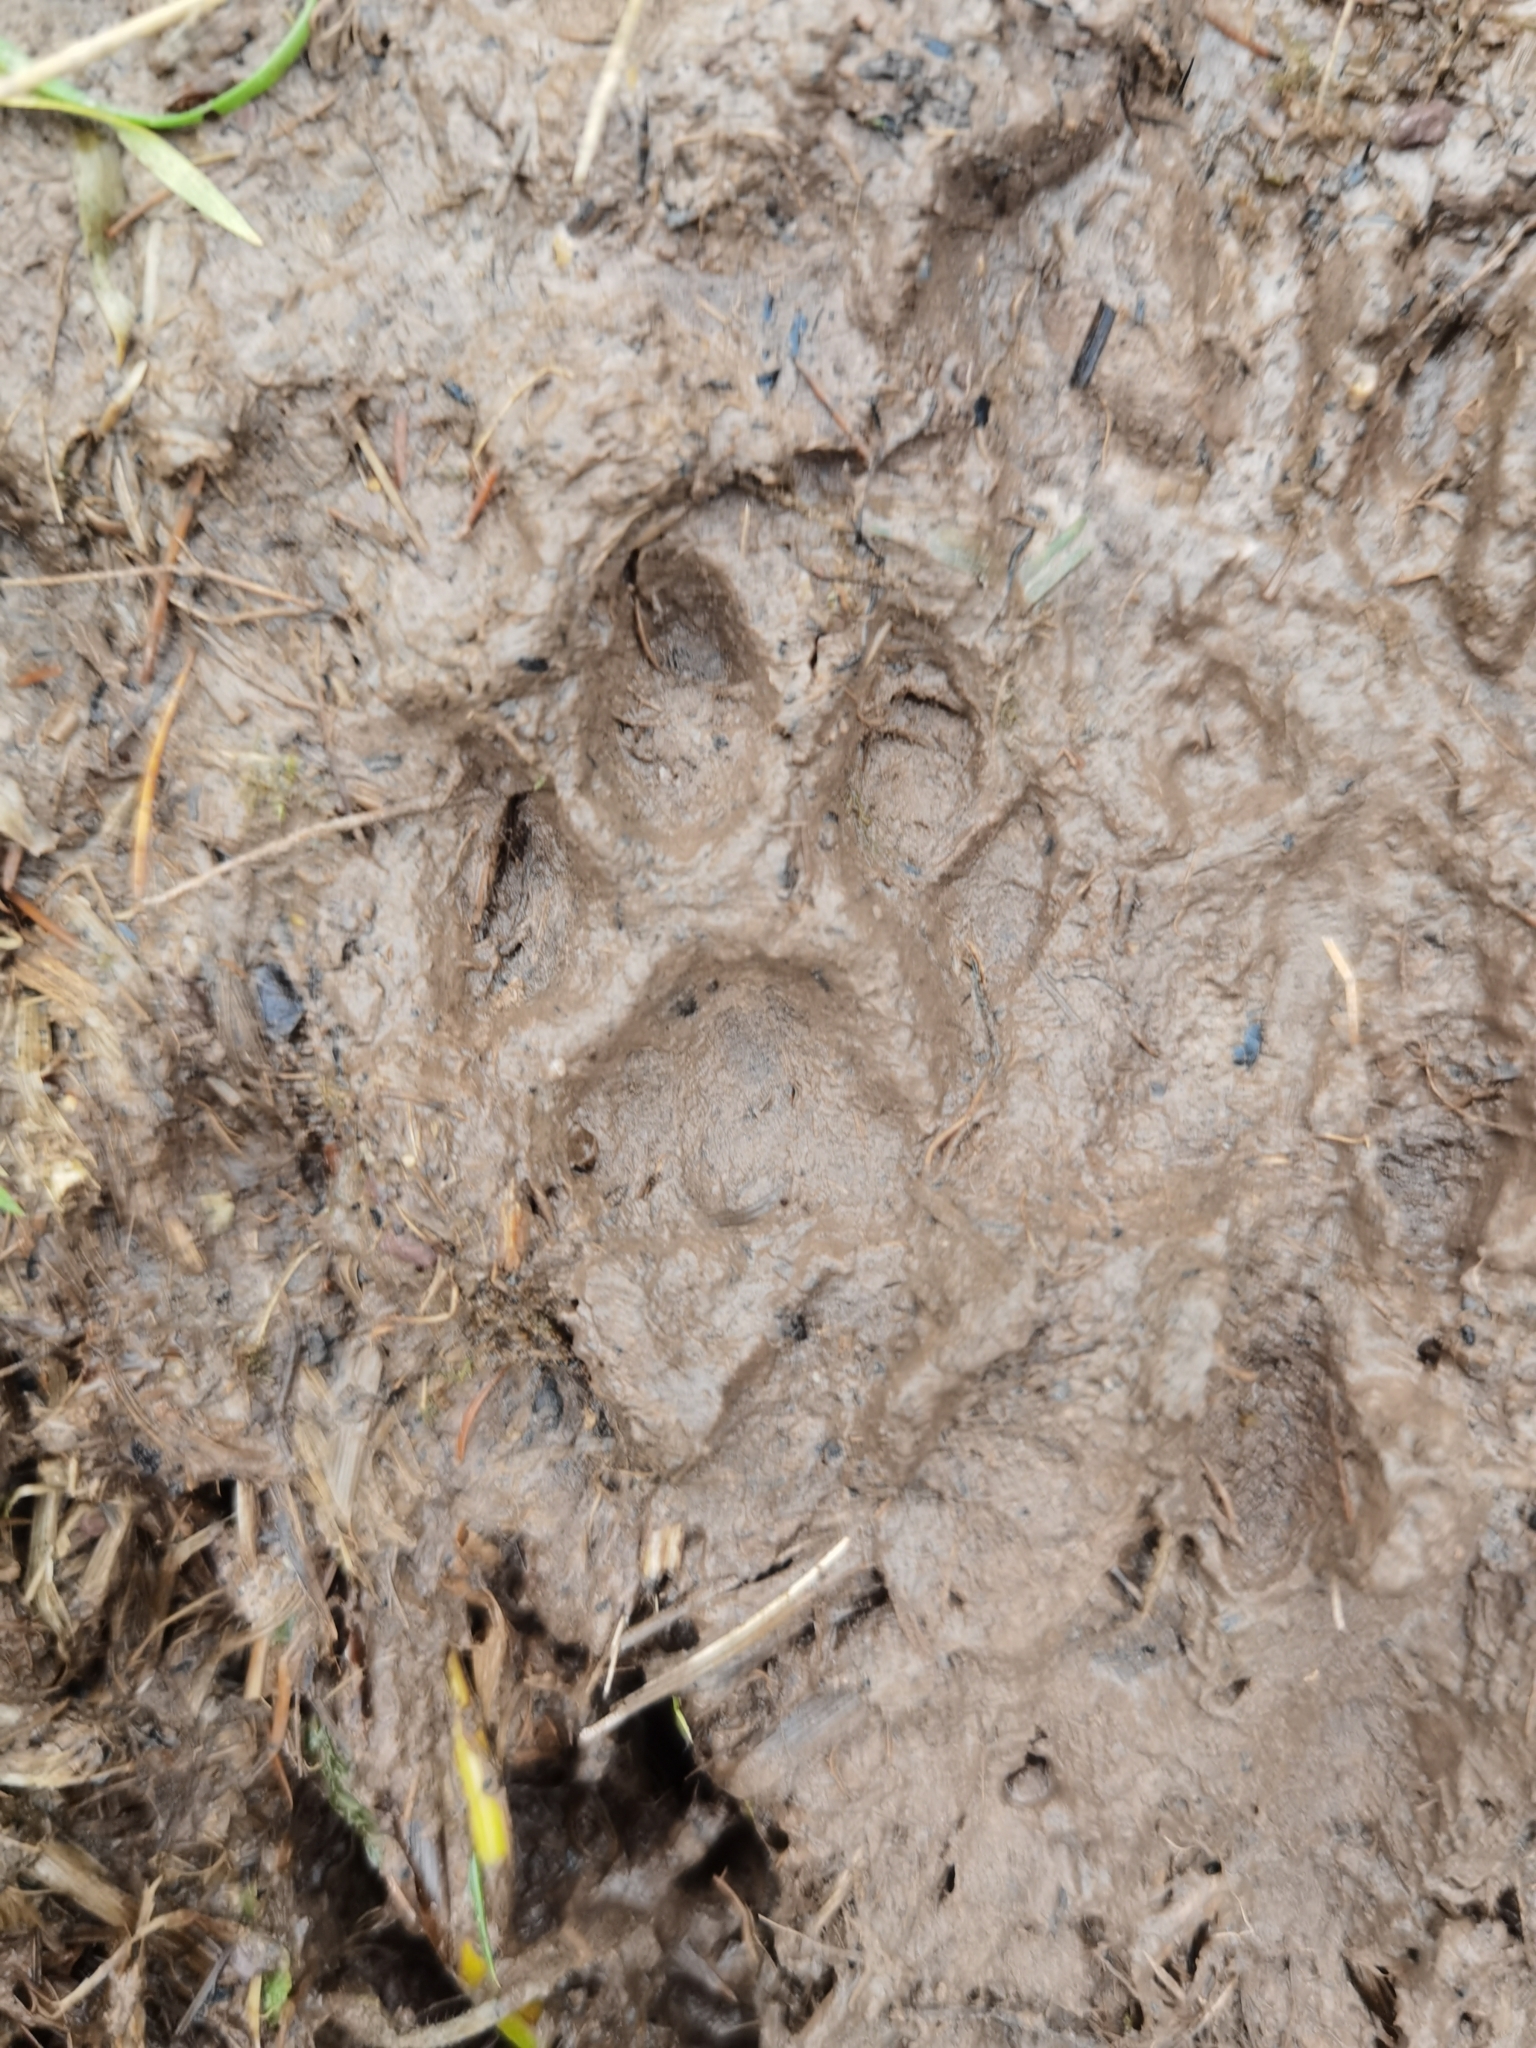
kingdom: Animalia
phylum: Chordata
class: Mammalia
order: Carnivora
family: Mustelidae
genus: Meles
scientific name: Meles meles
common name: Eurasian badger
